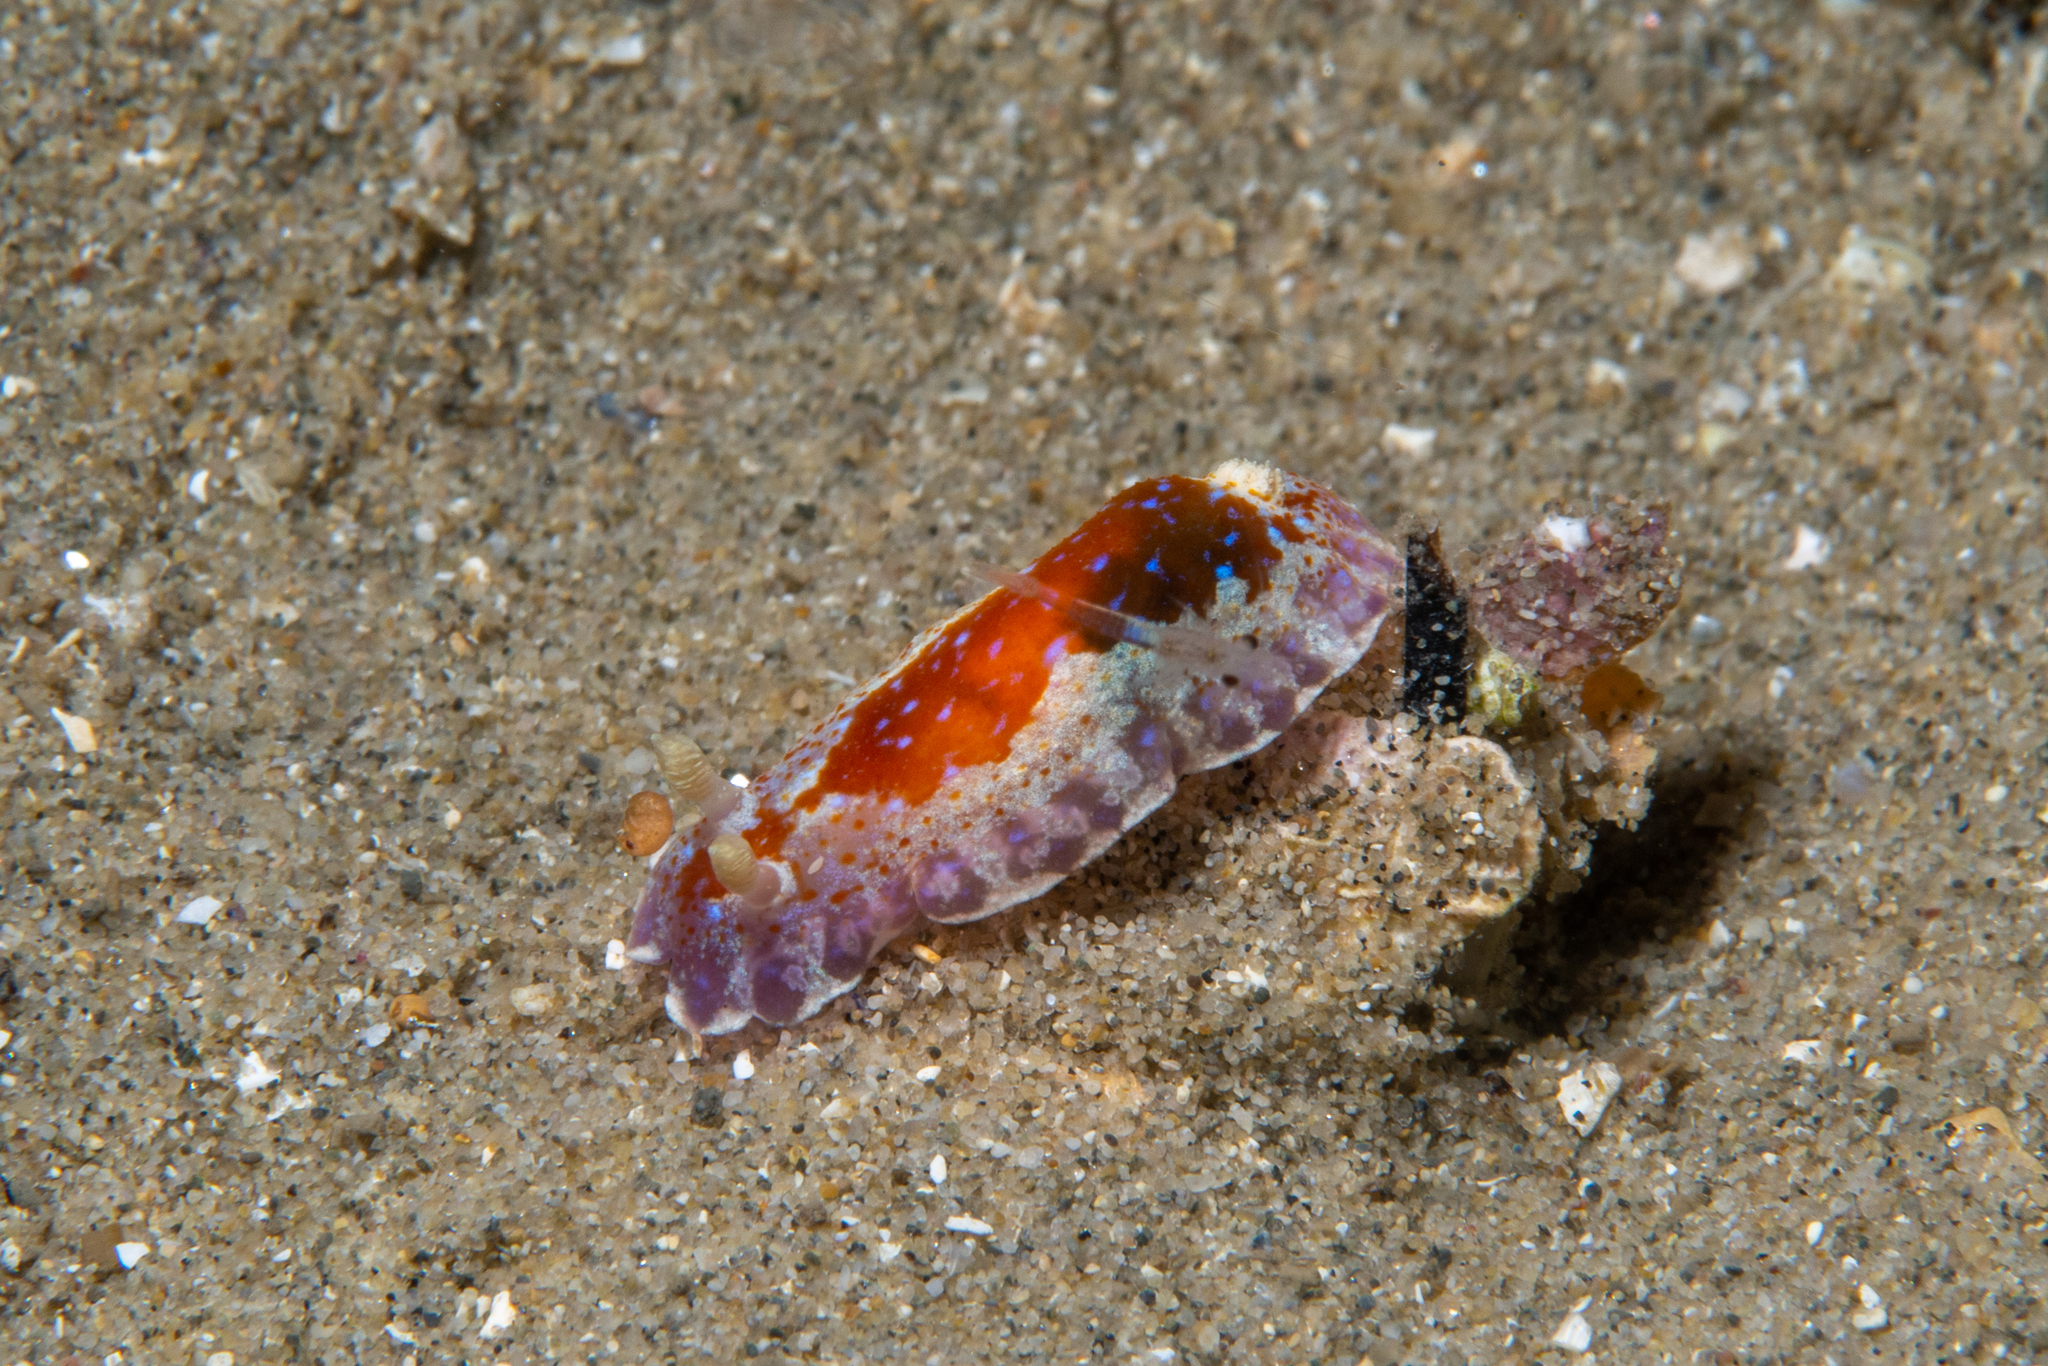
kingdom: Animalia
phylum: Mollusca
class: Gastropoda
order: Nudibranchia
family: Chromodorididae
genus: Chromodoris
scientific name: Chromodoris alternata
